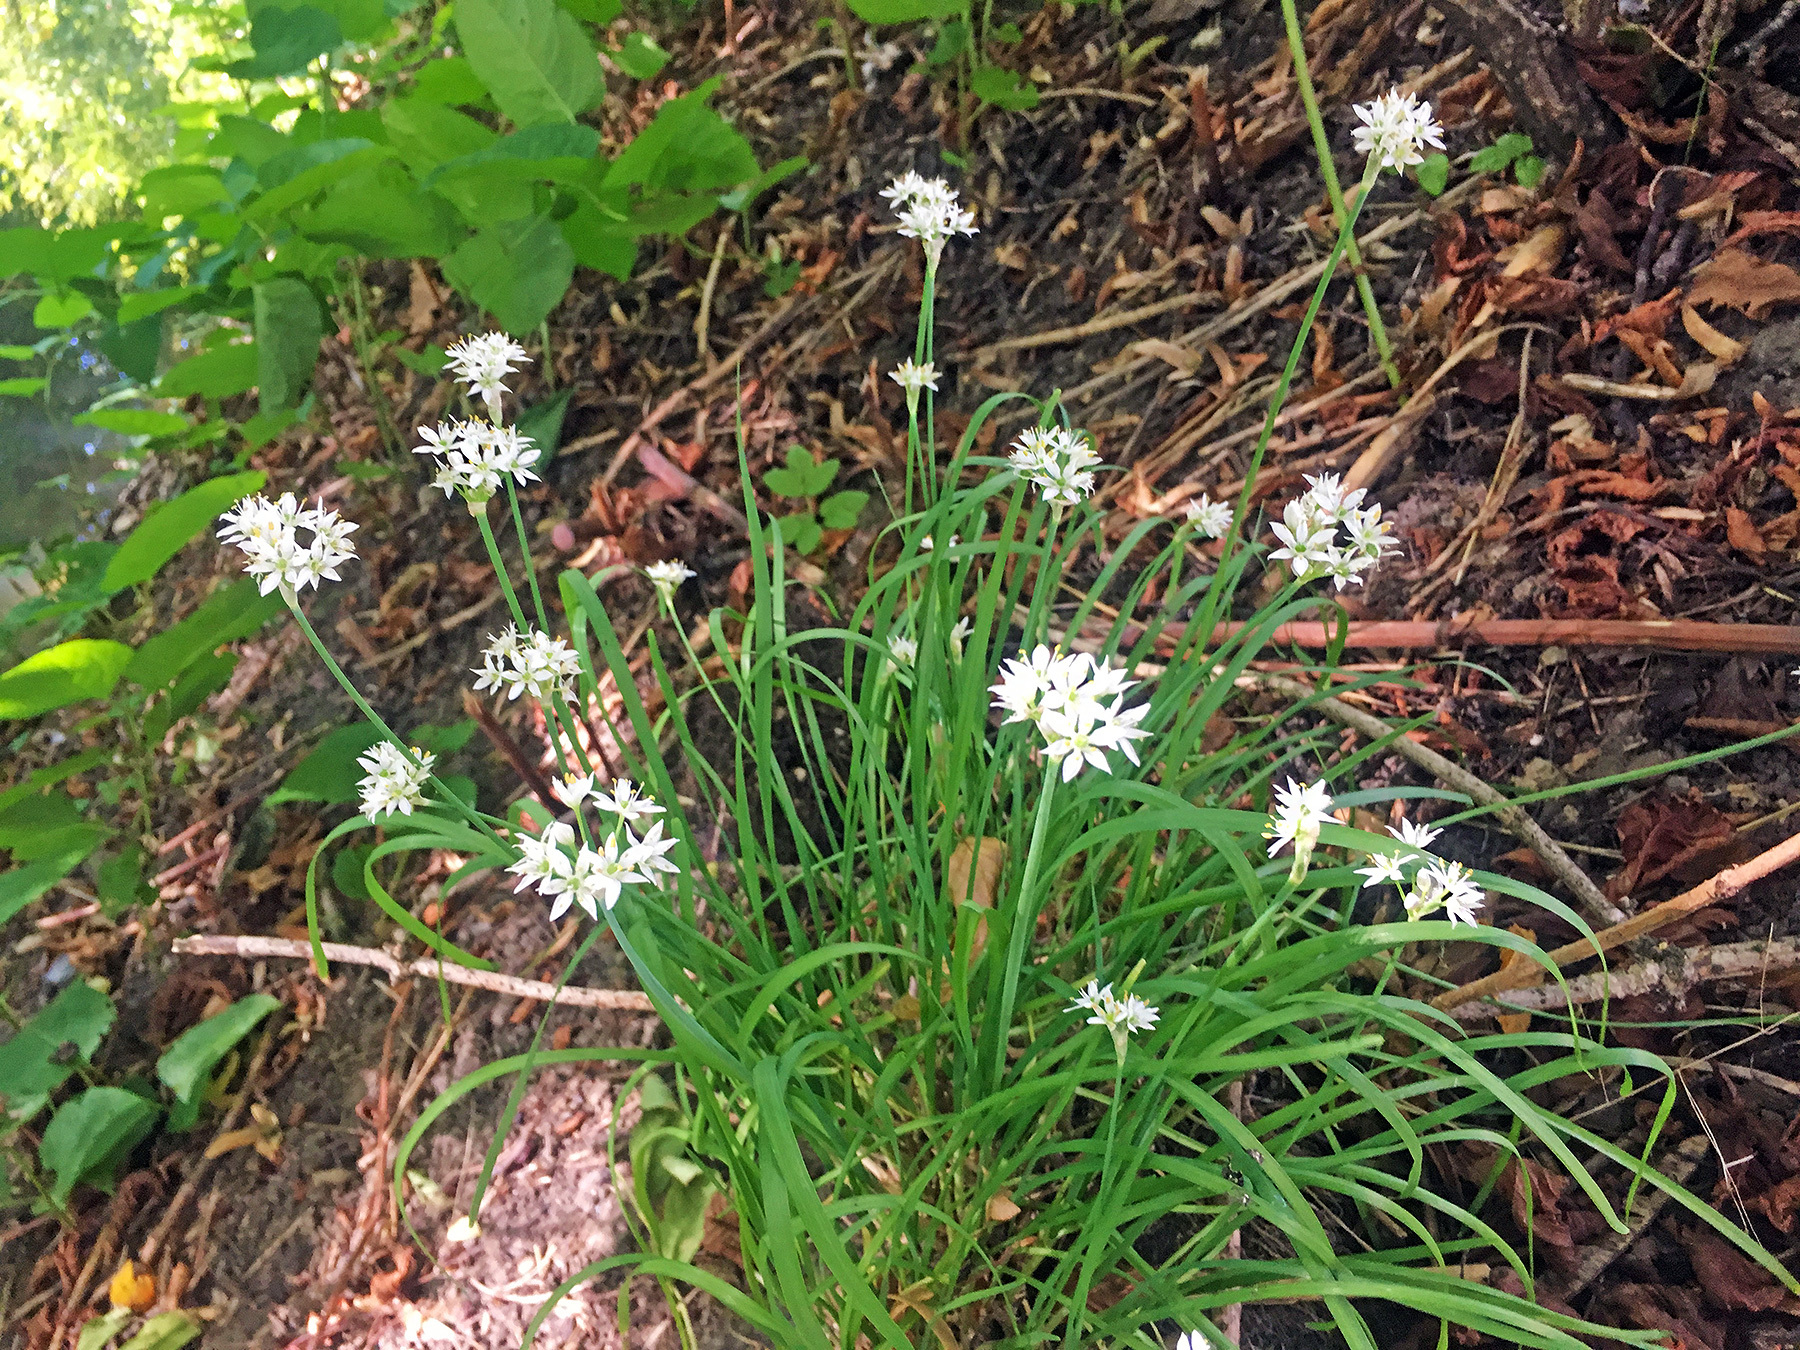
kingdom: Plantae
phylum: Tracheophyta
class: Liliopsida
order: Asparagales
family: Amaryllidaceae
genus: Allium
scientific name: Allium tuberosum
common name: Chinese chives
